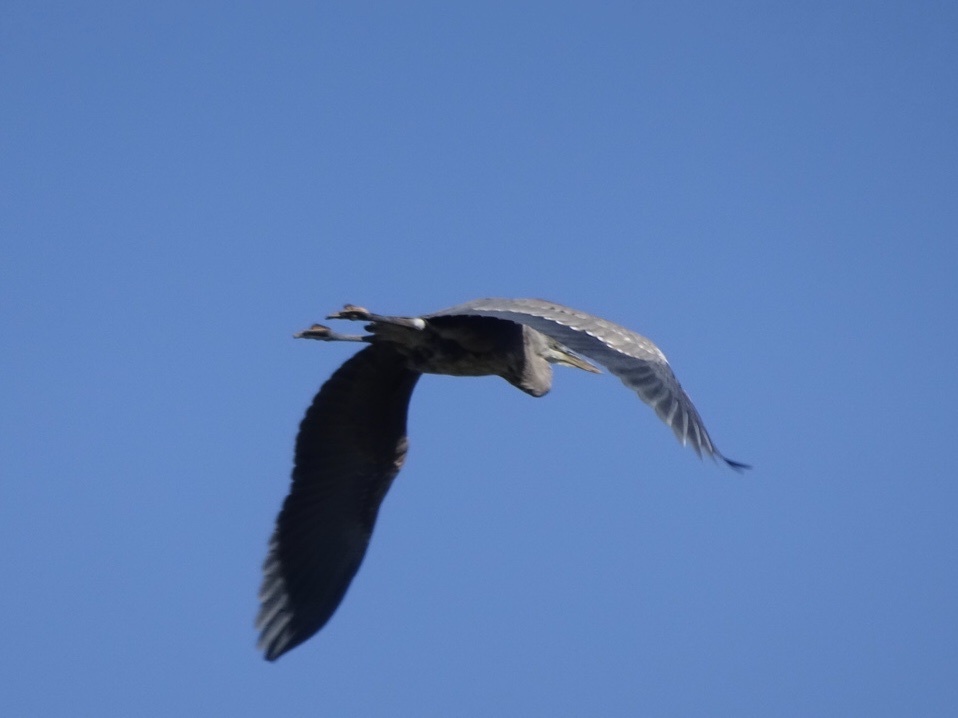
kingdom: Animalia
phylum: Chordata
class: Aves
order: Pelecaniformes
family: Ardeidae
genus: Ardea
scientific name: Ardea herodias
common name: Great blue heron
